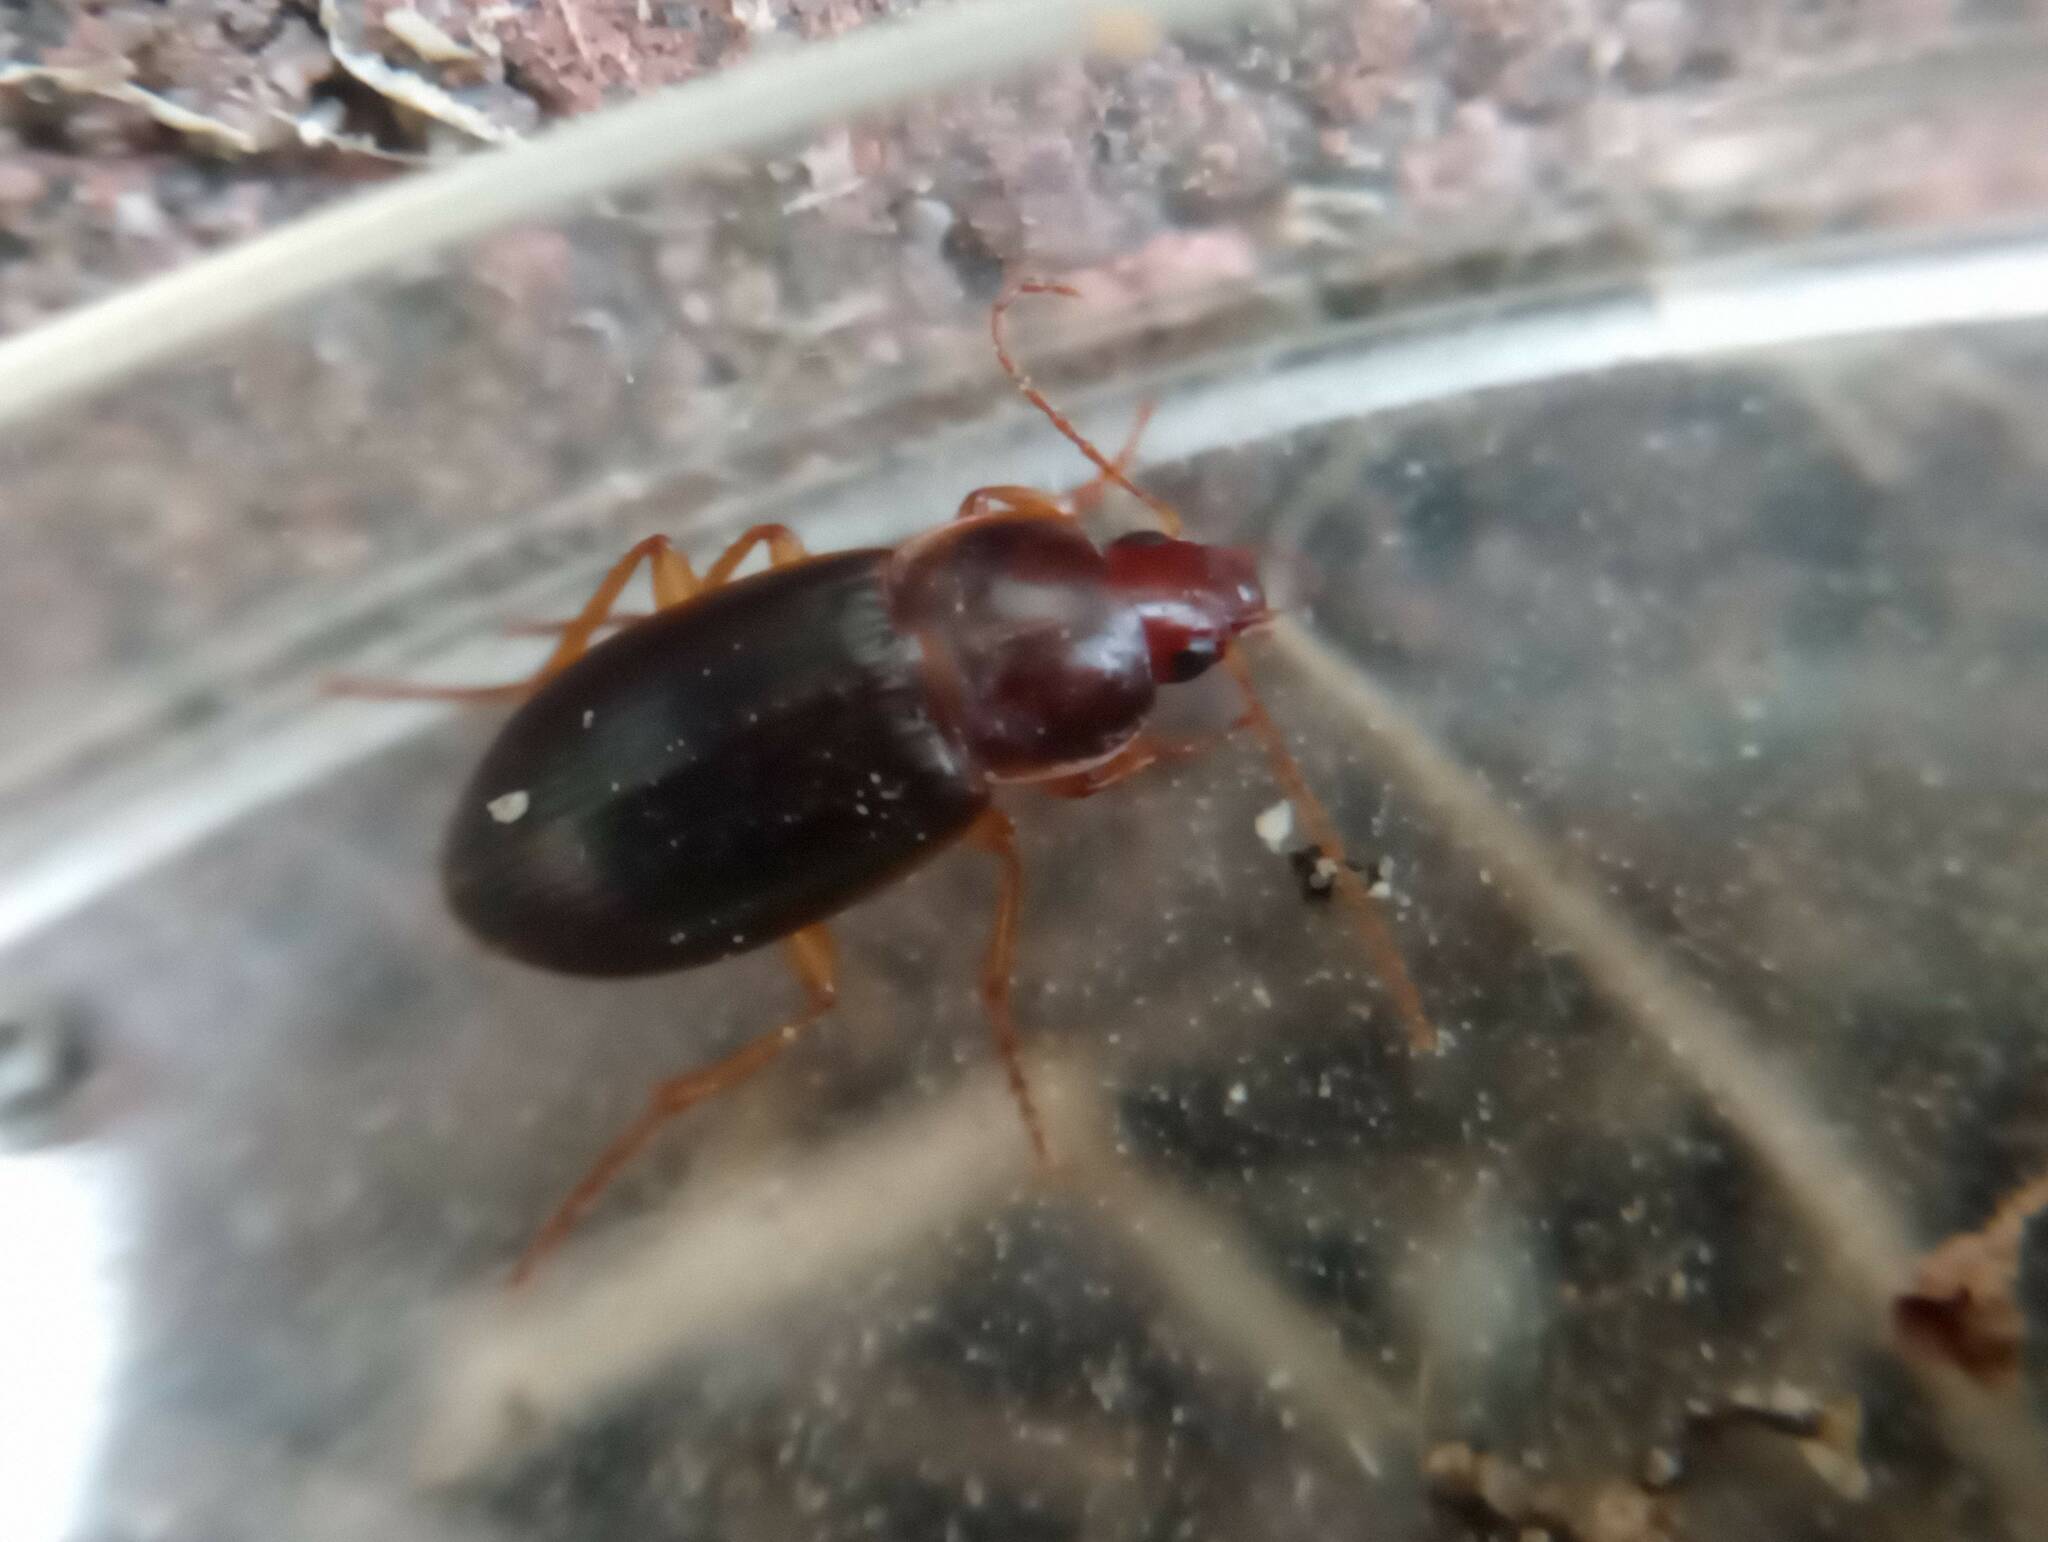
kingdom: Animalia
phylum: Arthropoda
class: Insecta
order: Coleoptera
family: Carabidae
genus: Calathus
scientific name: Calathus ruficollis
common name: Red-collared harp ground beetle
